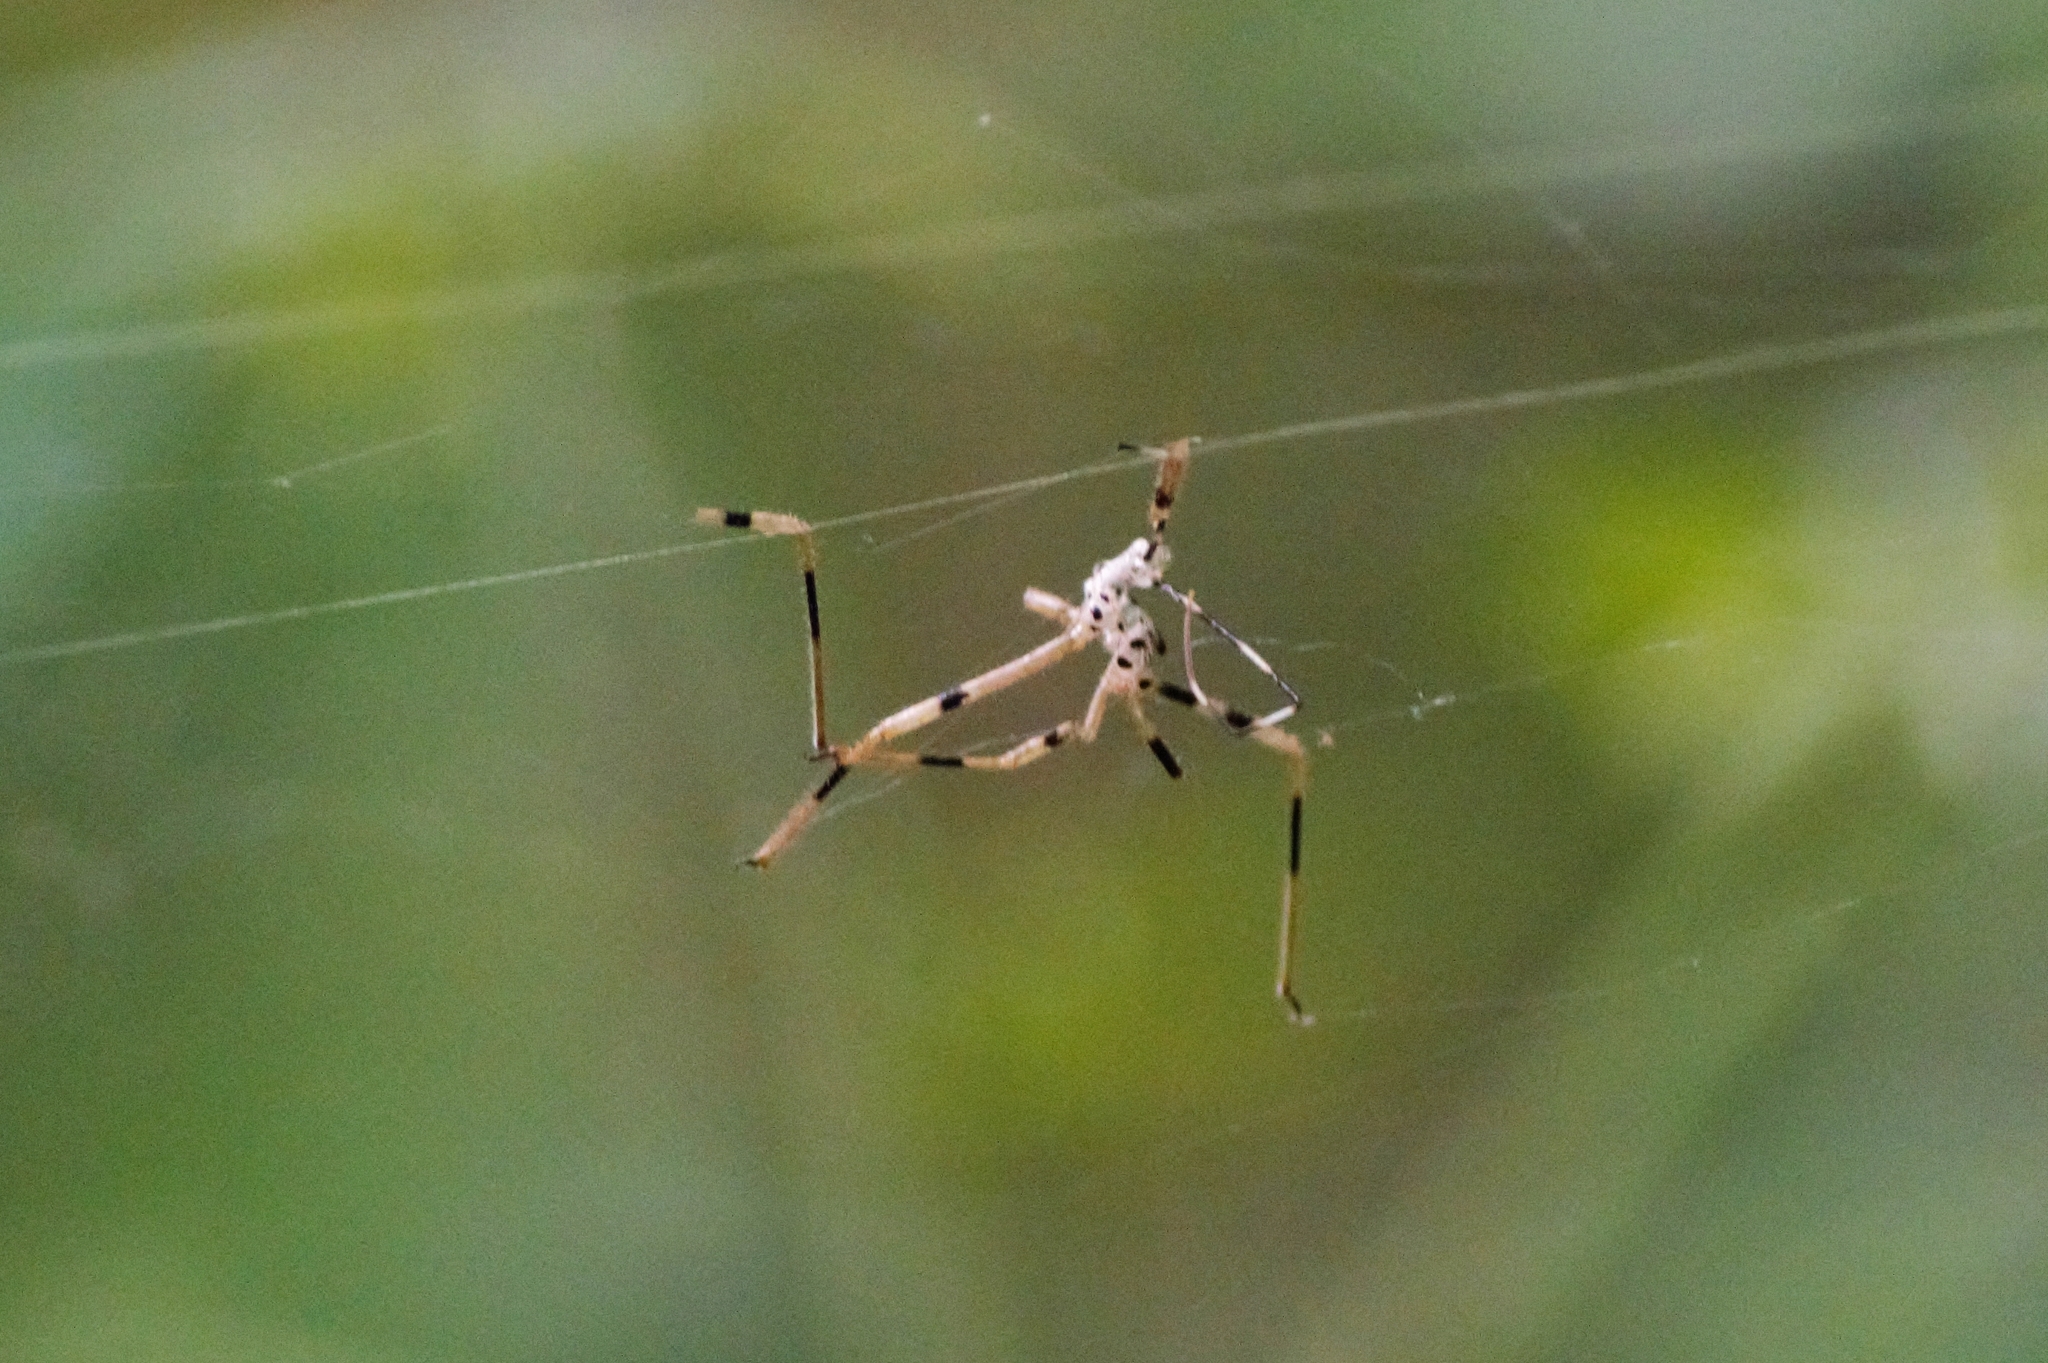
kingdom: Animalia
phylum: Arthropoda
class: Arachnida
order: Araneae
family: Araneidae
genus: Trichonephila
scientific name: Trichonephila clavipes
